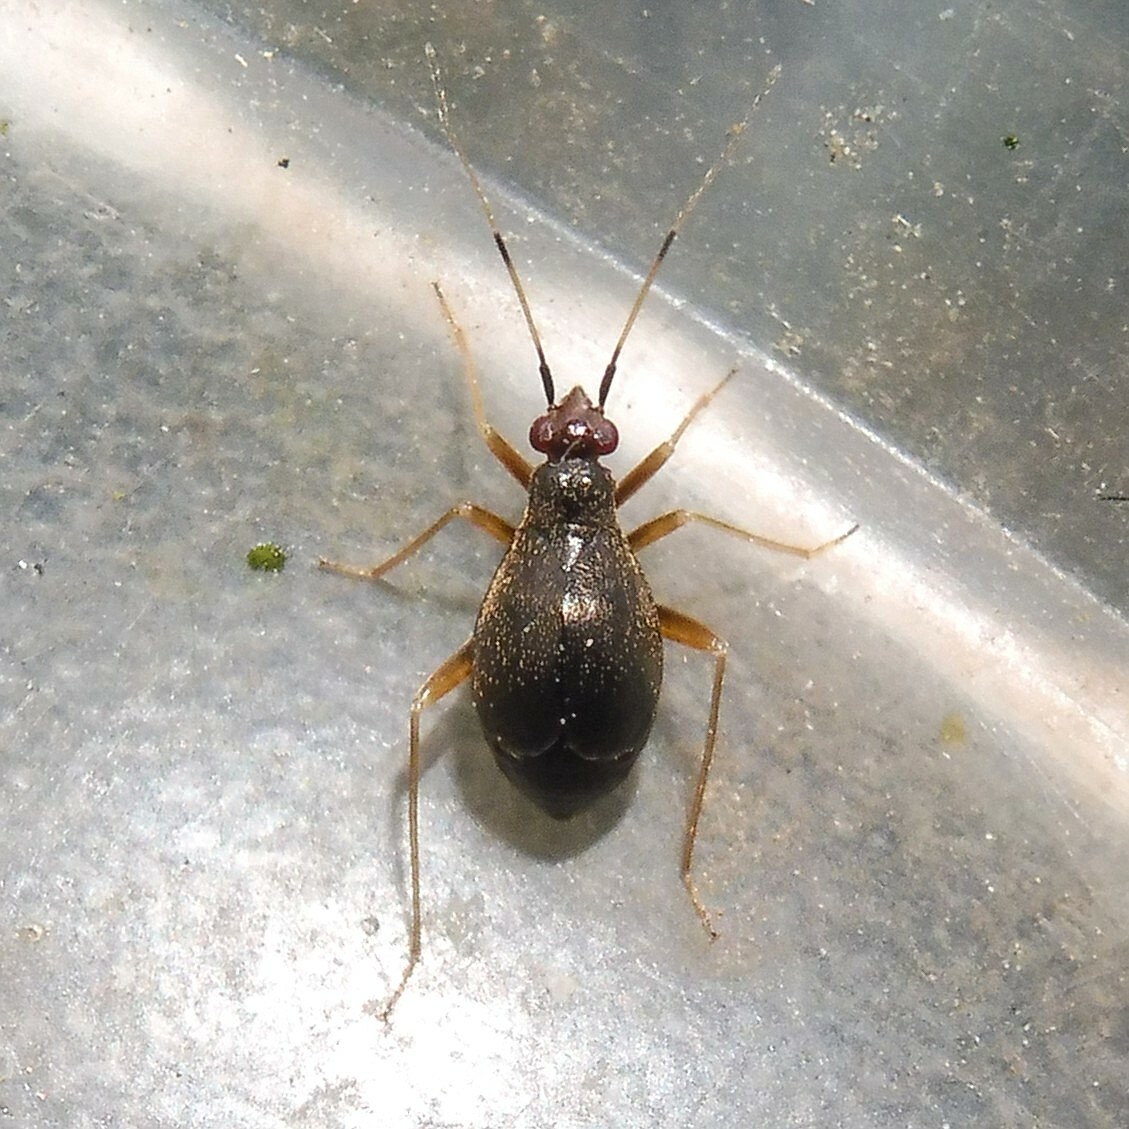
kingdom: Animalia
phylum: Arthropoda
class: Insecta
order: Hemiptera
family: Miridae
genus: Orthonotus
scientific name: Orthonotus rufifrons
